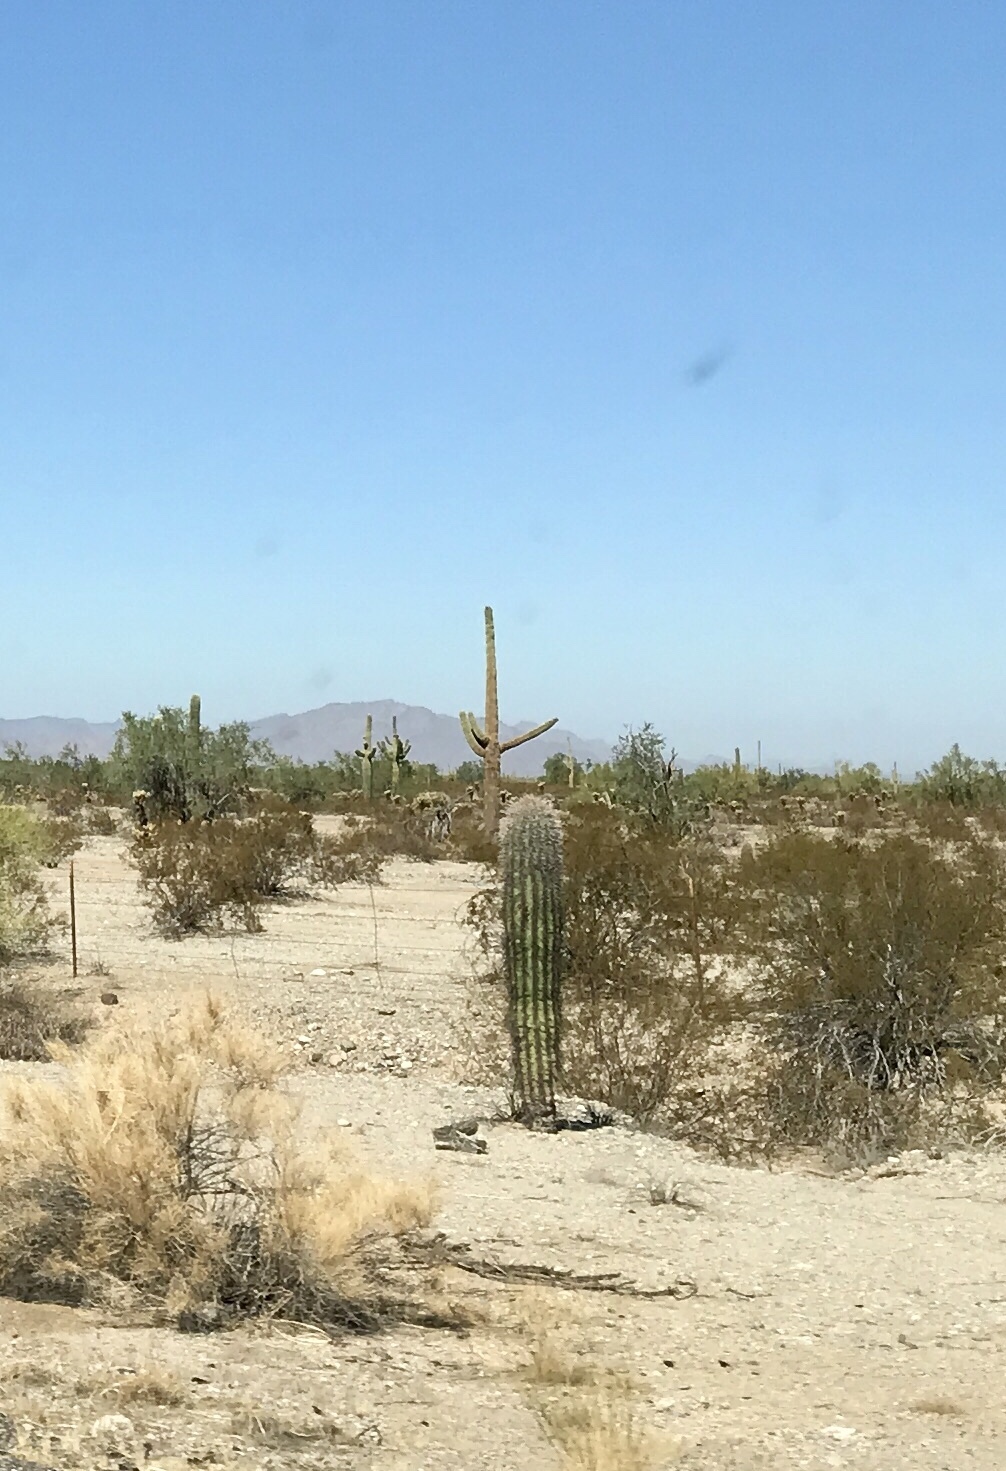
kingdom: Plantae
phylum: Tracheophyta
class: Magnoliopsida
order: Caryophyllales
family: Cactaceae
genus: Carnegiea
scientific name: Carnegiea gigantea
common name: Saguaro
